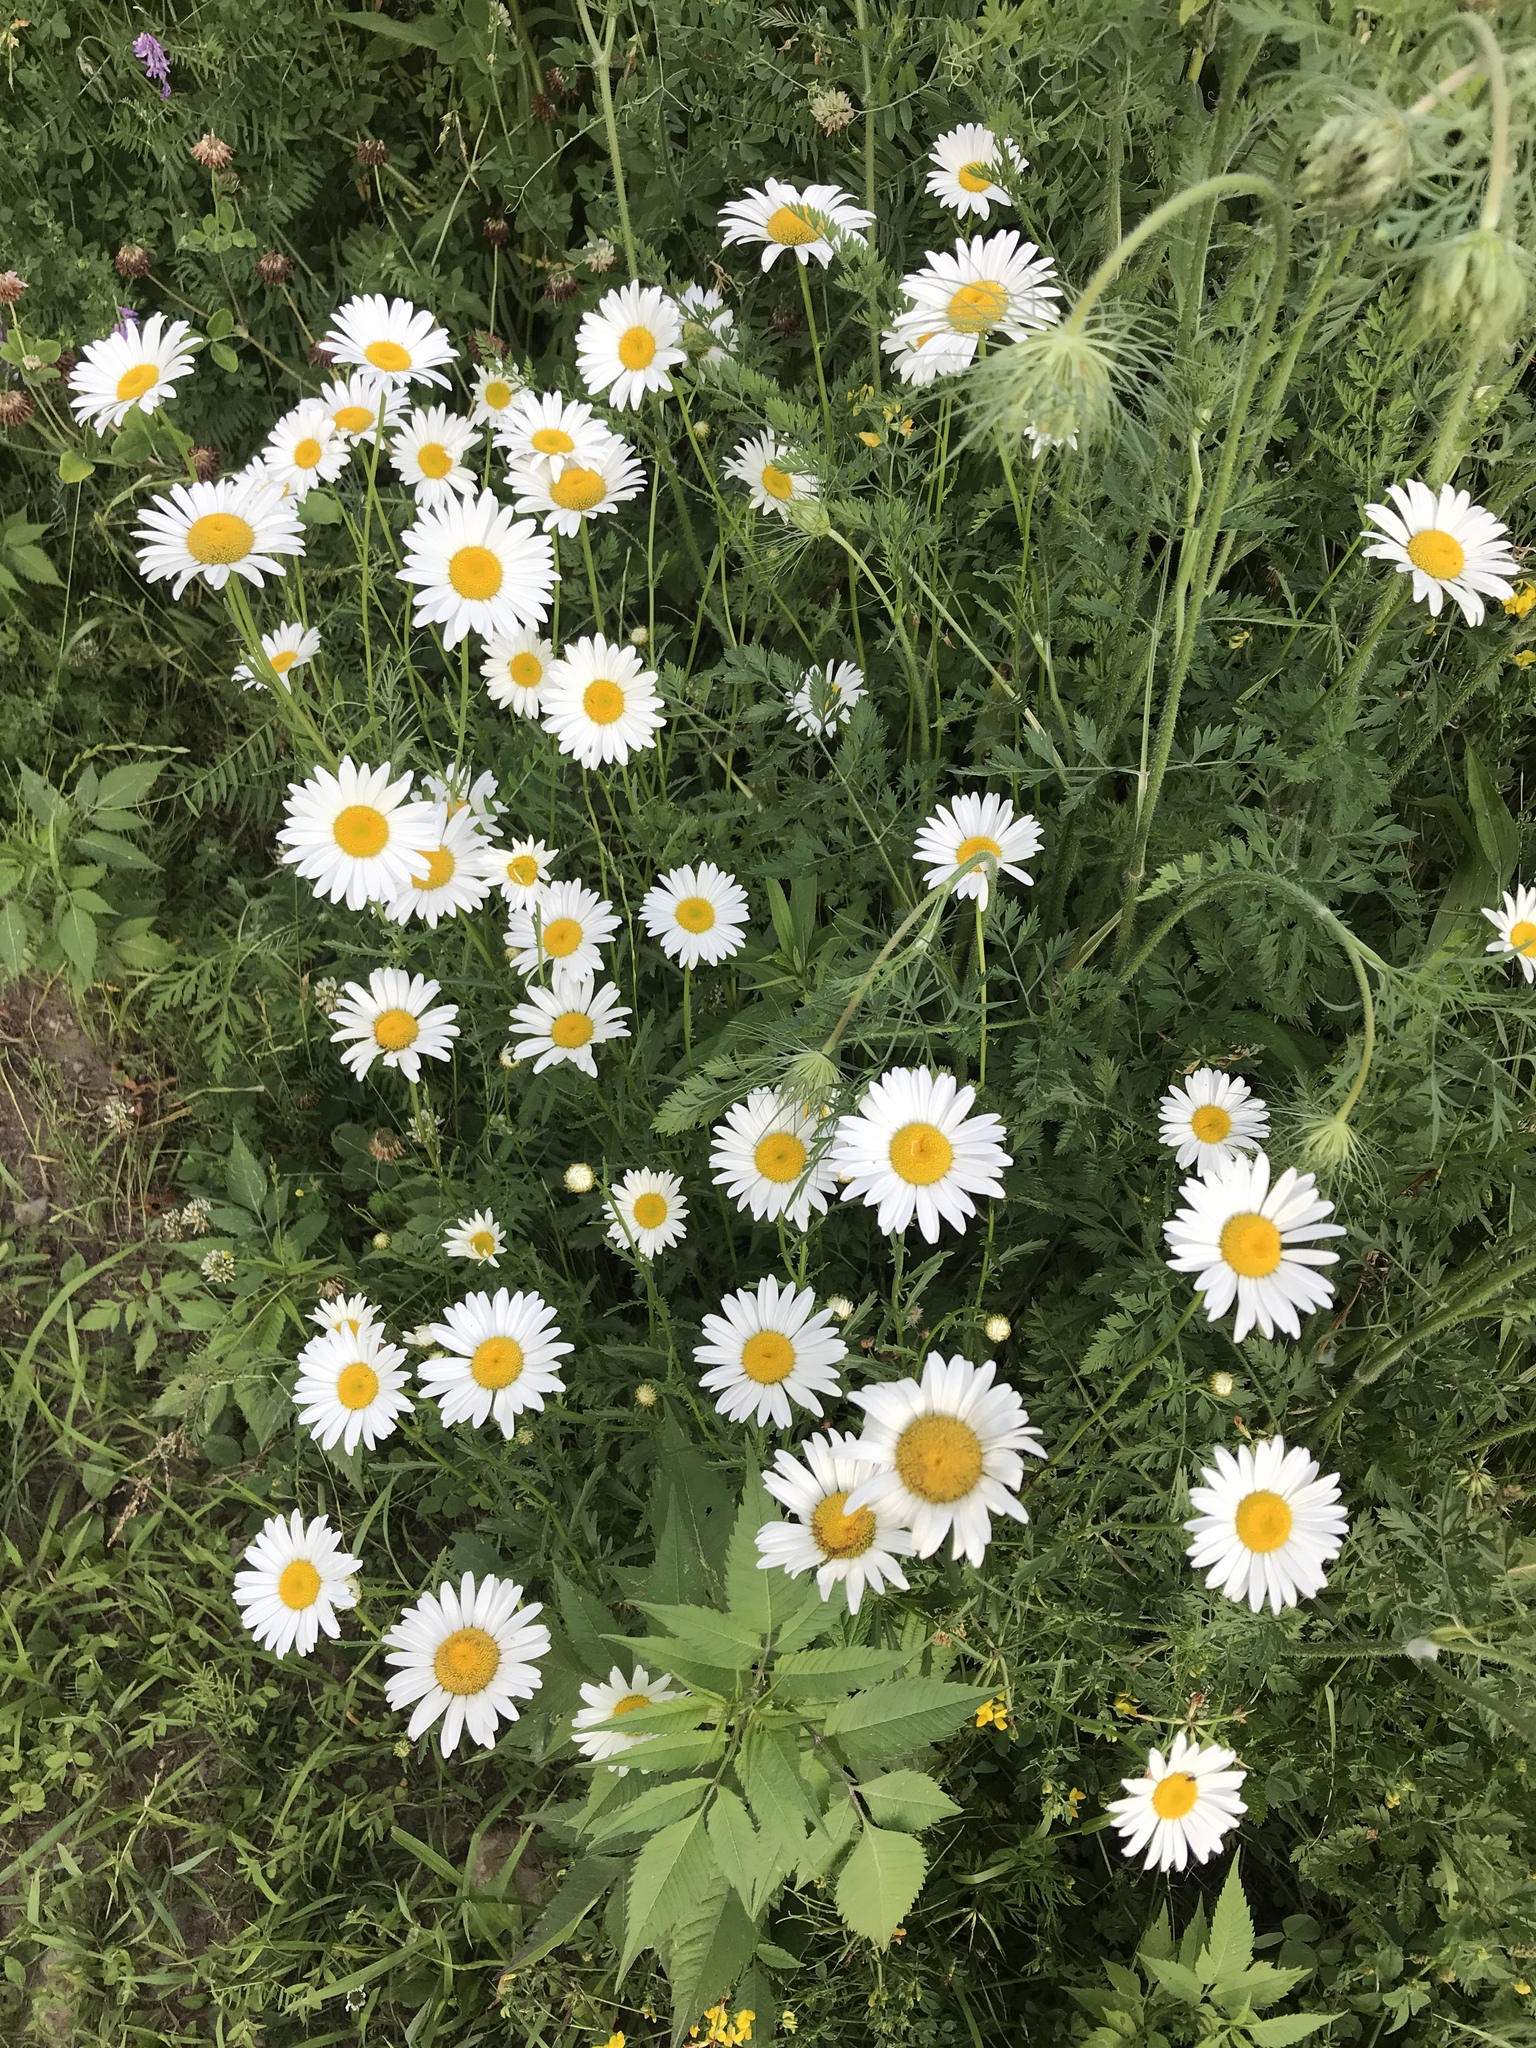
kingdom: Plantae
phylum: Tracheophyta
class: Magnoliopsida
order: Asterales
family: Asteraceae
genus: Leucanthemum
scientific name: Leucanthemum vulgare
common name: Oxeye daisy
